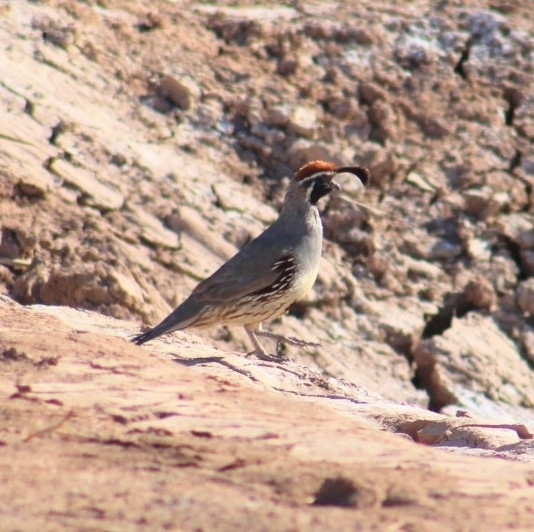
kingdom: Animalia
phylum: Chordata
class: Aves
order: Galliformes
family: Odontophoridae
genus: Callipepla
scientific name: Callipepla gambelii
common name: Gambel's quail
